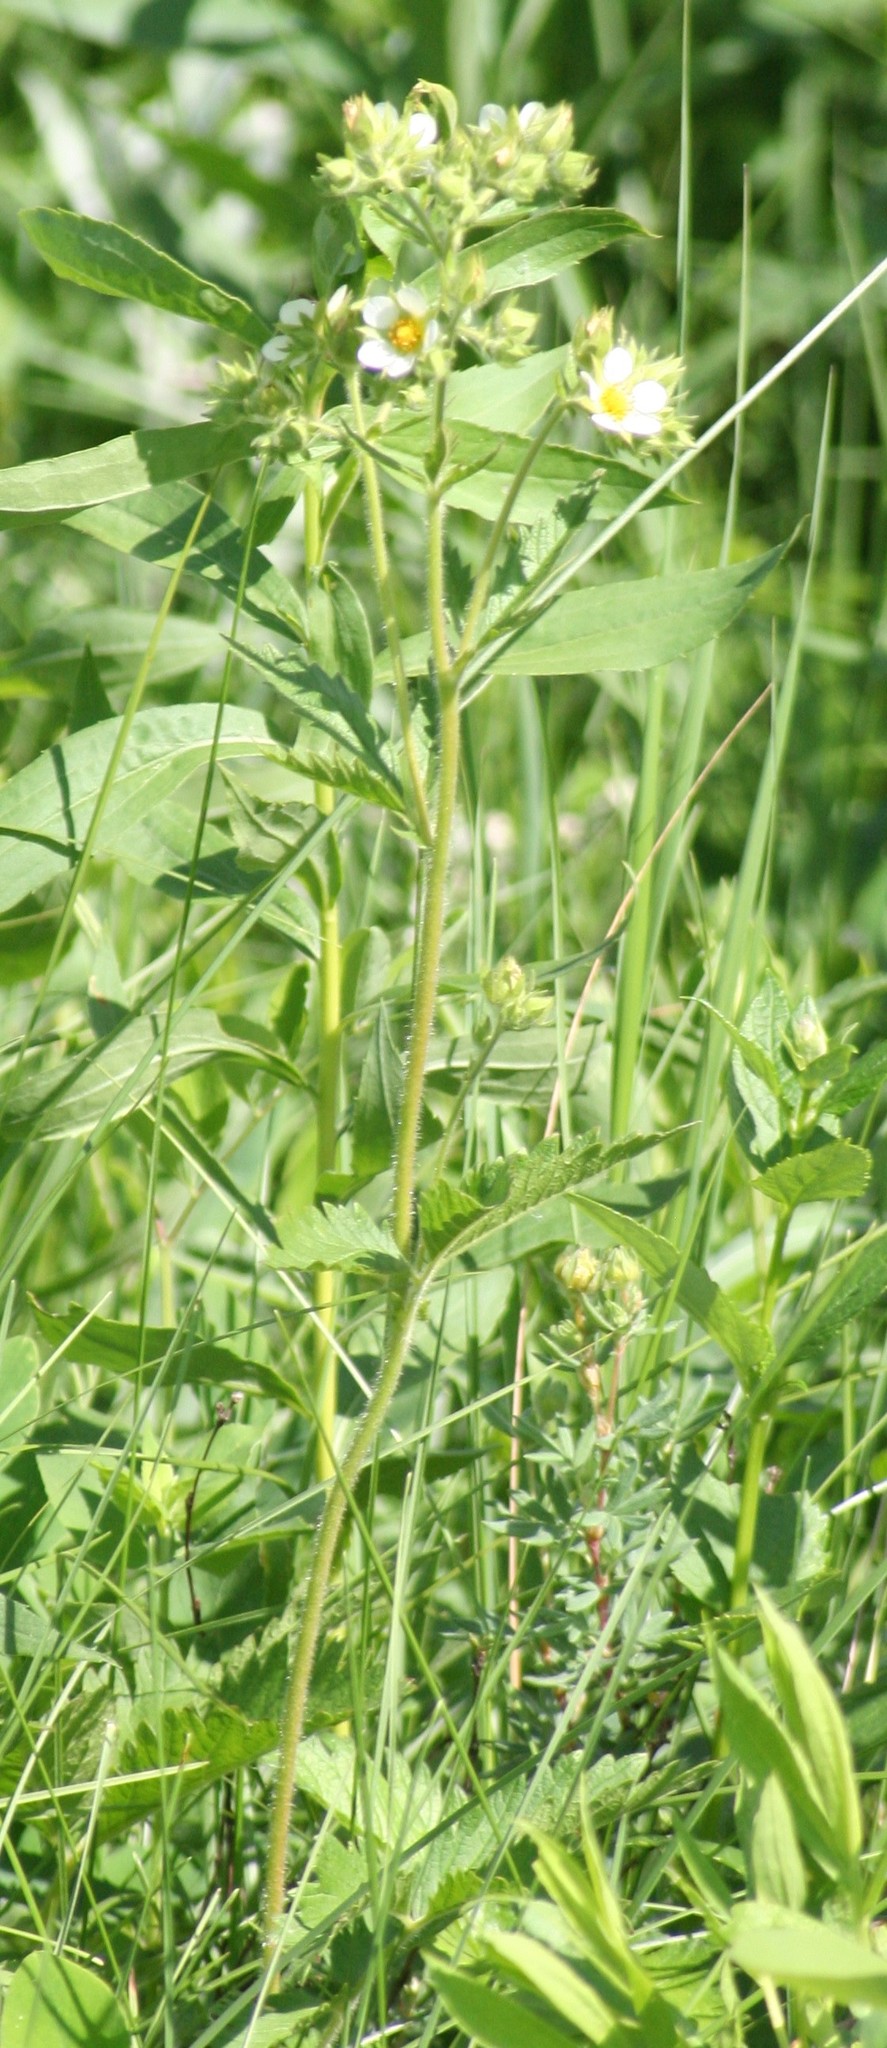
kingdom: Plantae
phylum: Tracheophyta
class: Magnoliopsida
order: Rosales
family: Rosaceae
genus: Drymocallis
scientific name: Drymocallis arguta
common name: Tall cinquefoil
